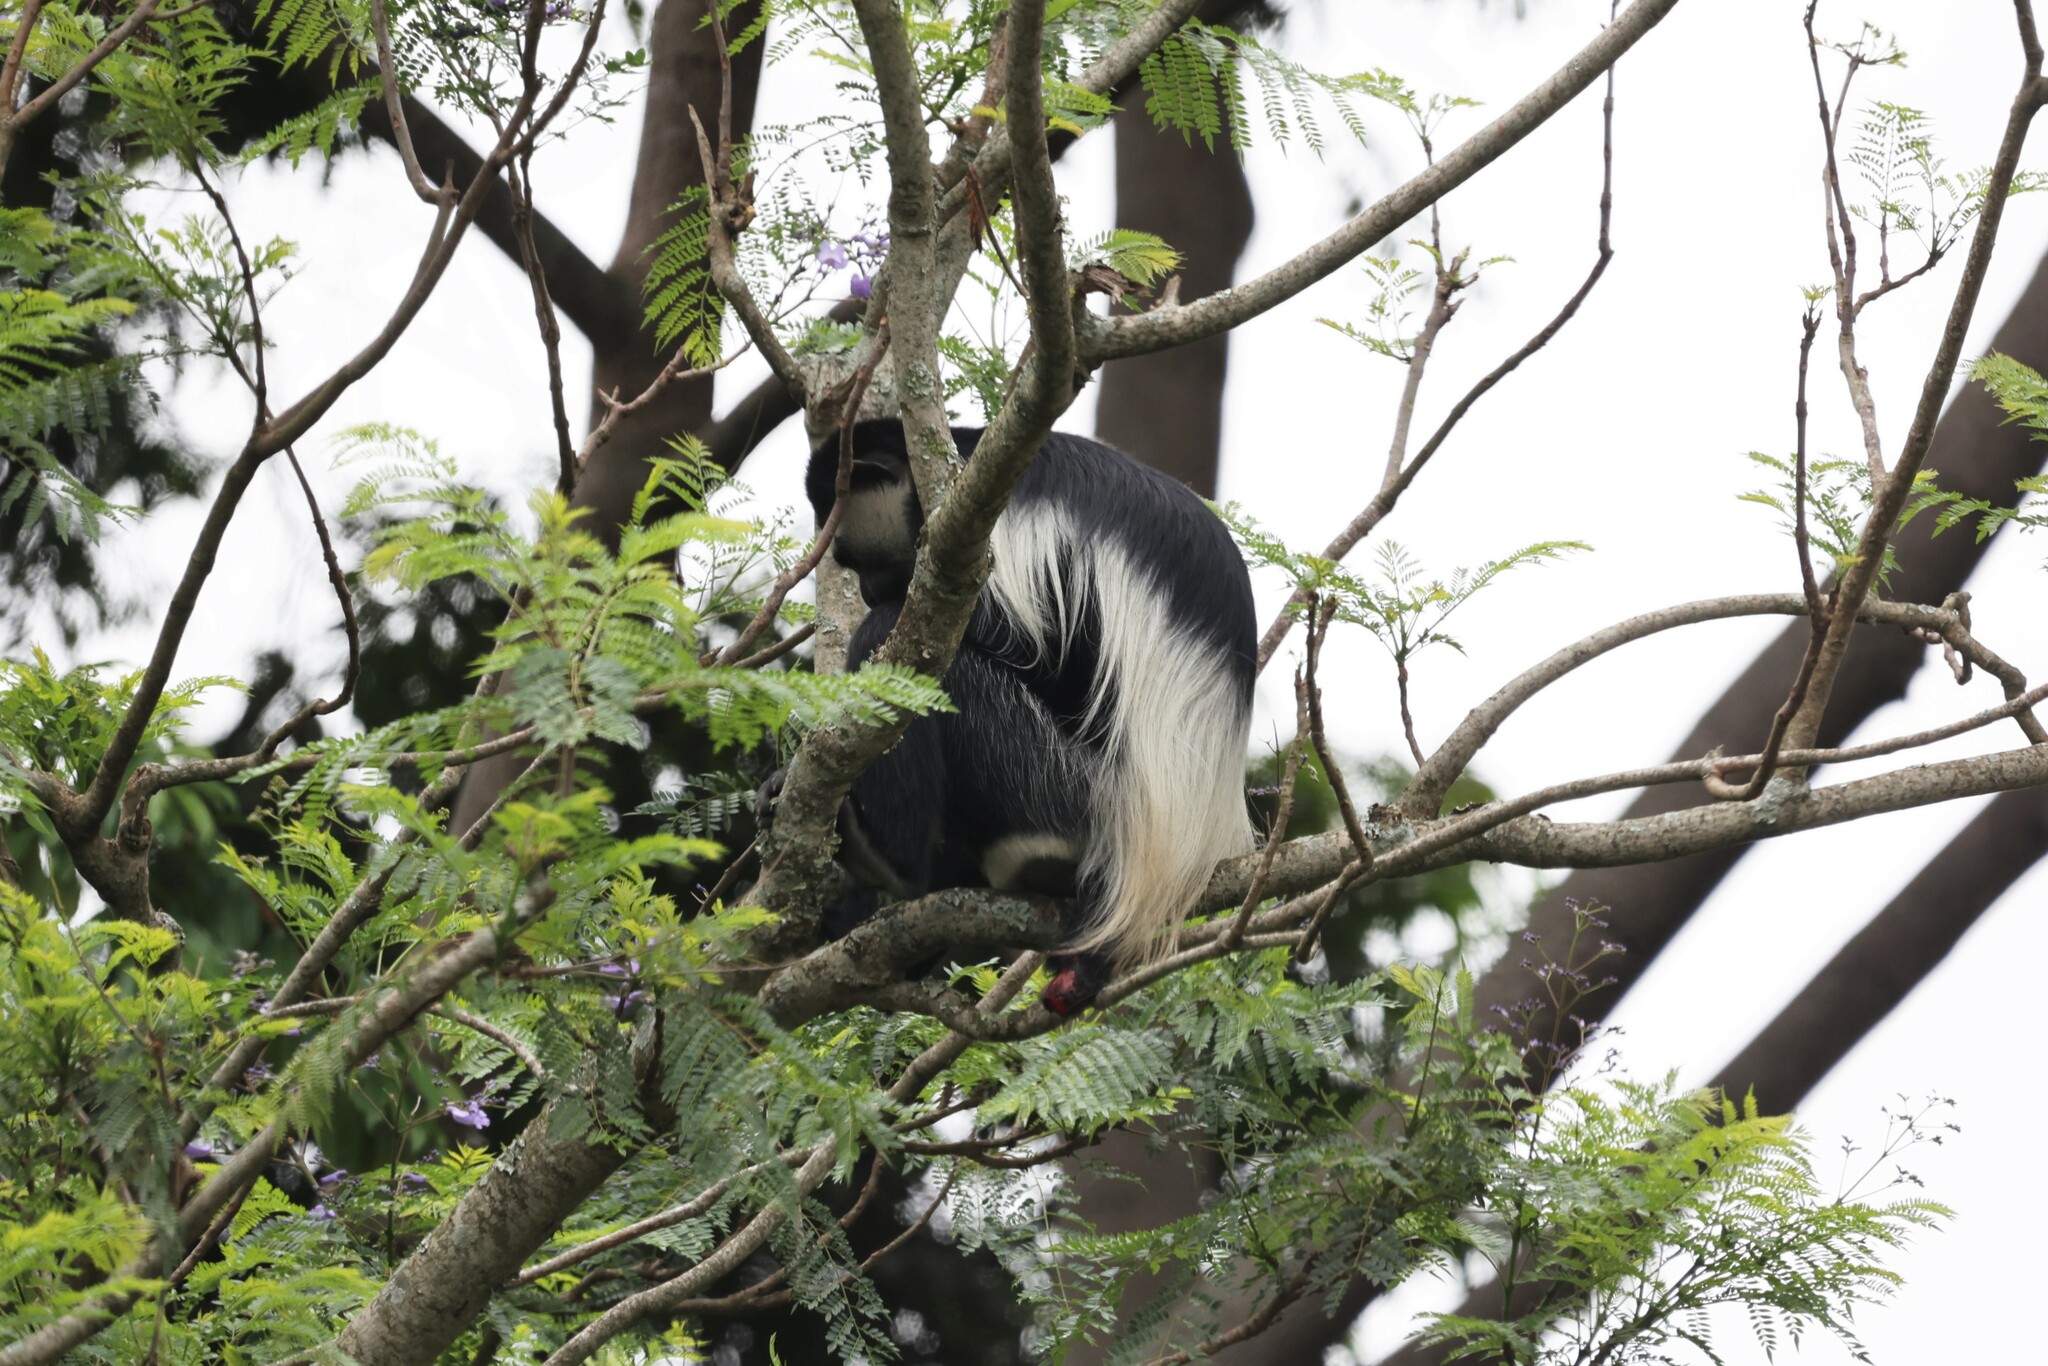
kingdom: Animalia
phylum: Chordata
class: Mammalia
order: Primates
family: Cercopithecidae
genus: Colobus
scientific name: Colobus guereza
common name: Mantled guereza
